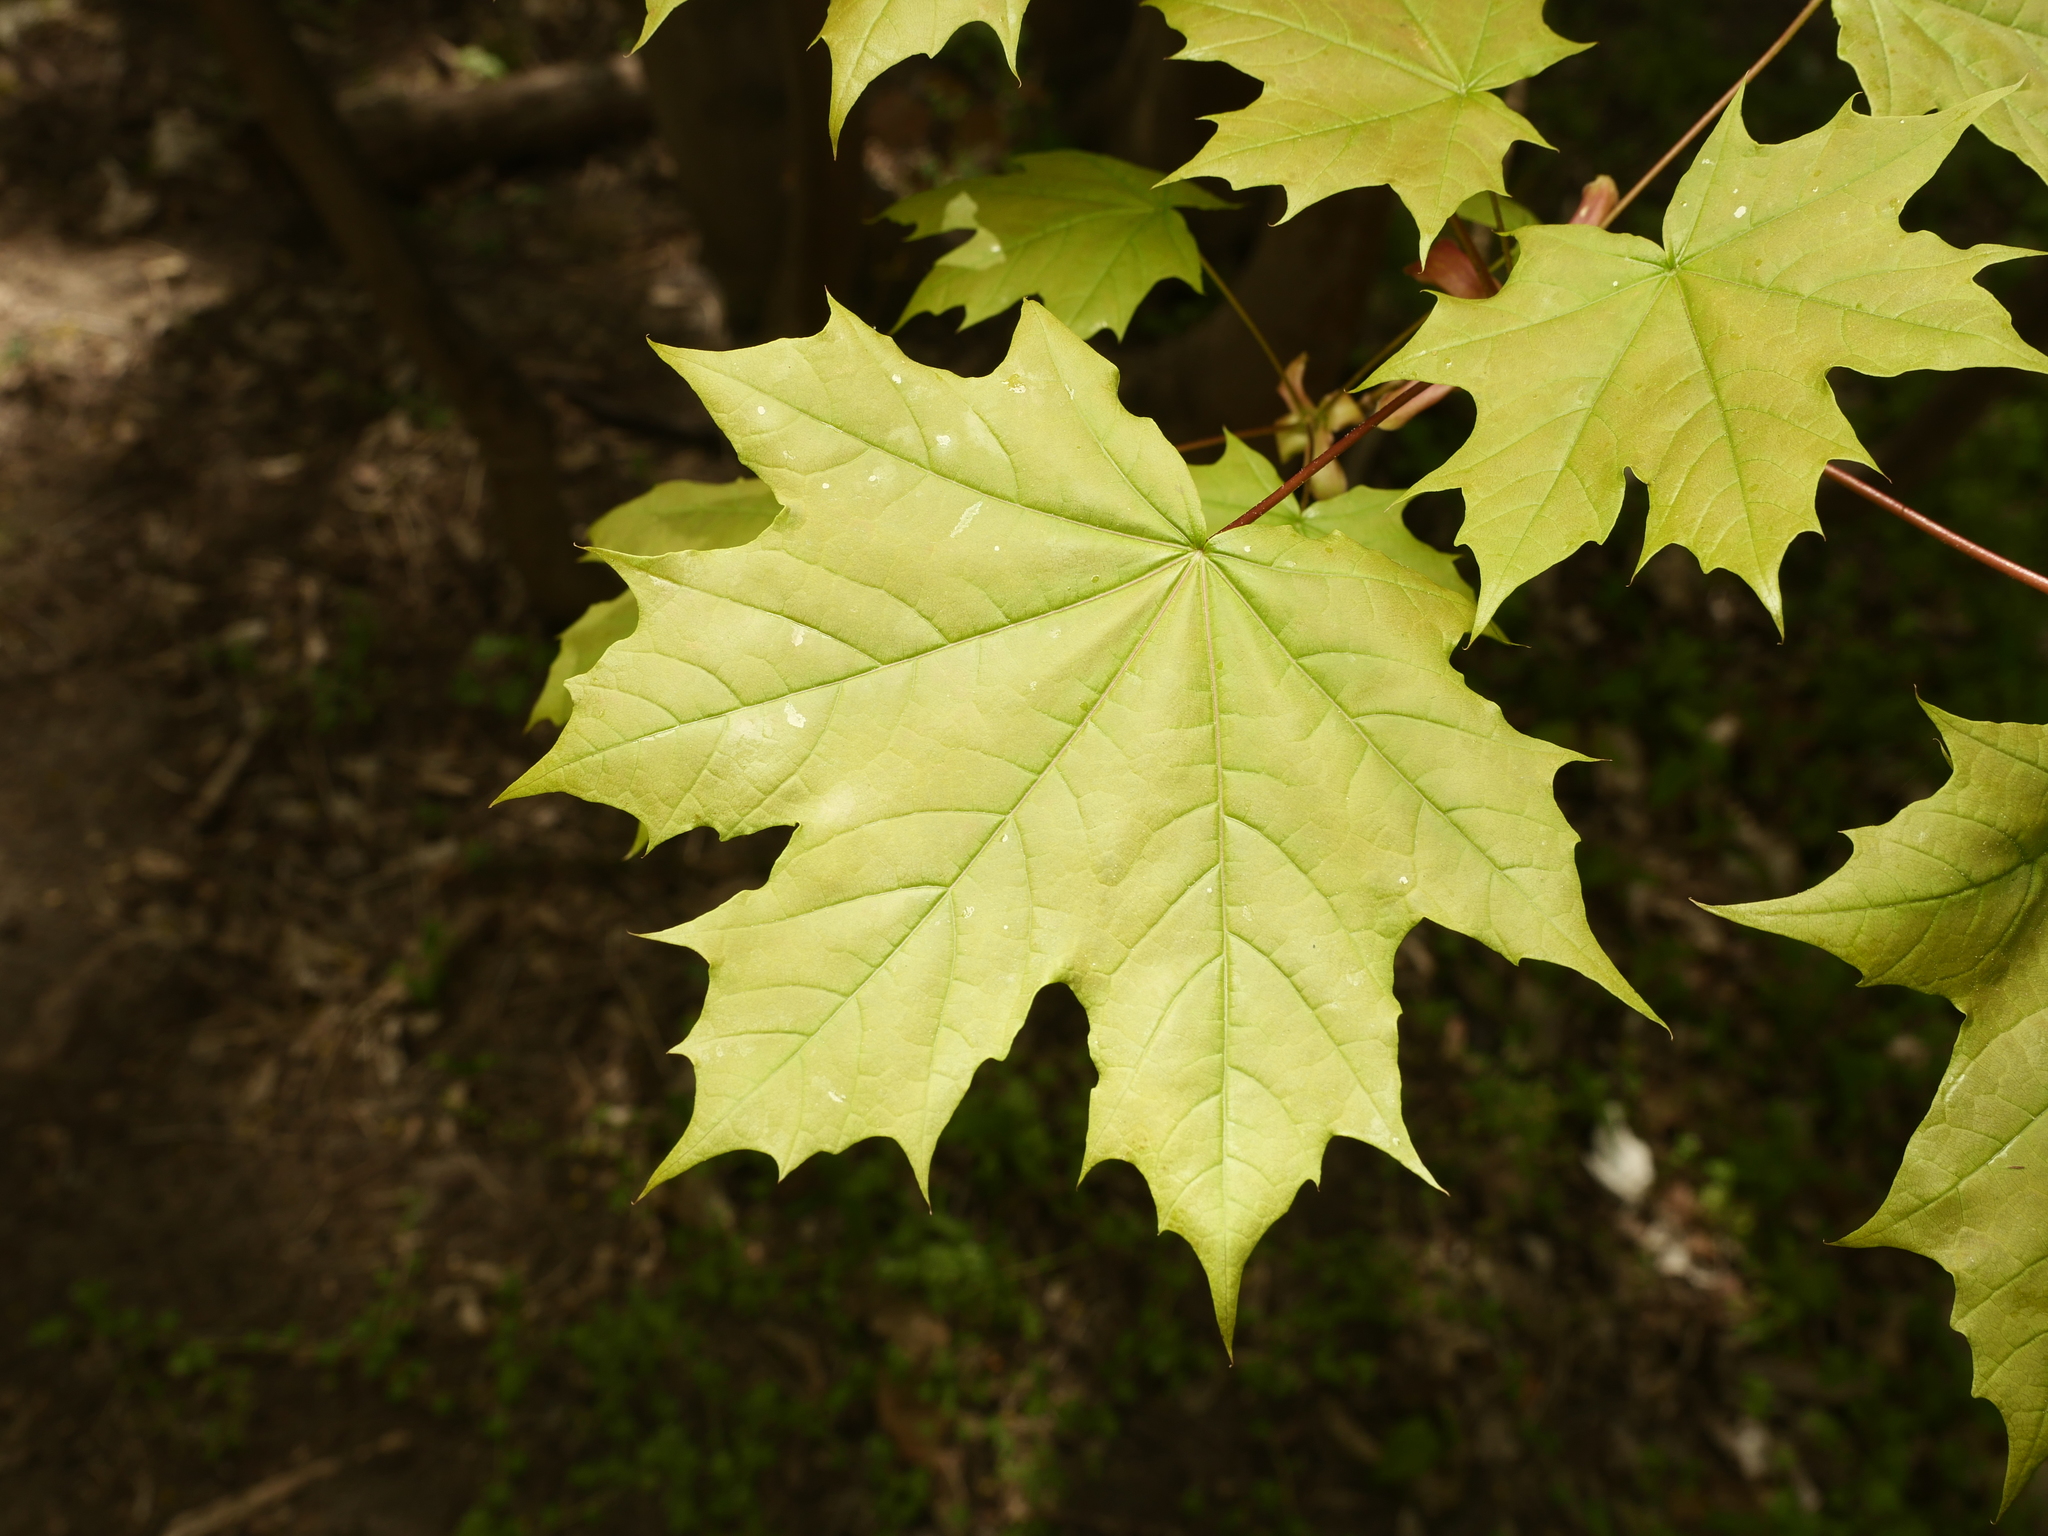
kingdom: Plantae
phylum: Tracheophyta
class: Magnoliopsida
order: Sapindales
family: Sapindaceae
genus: Acer
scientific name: Acer platanoides
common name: Norway maple
